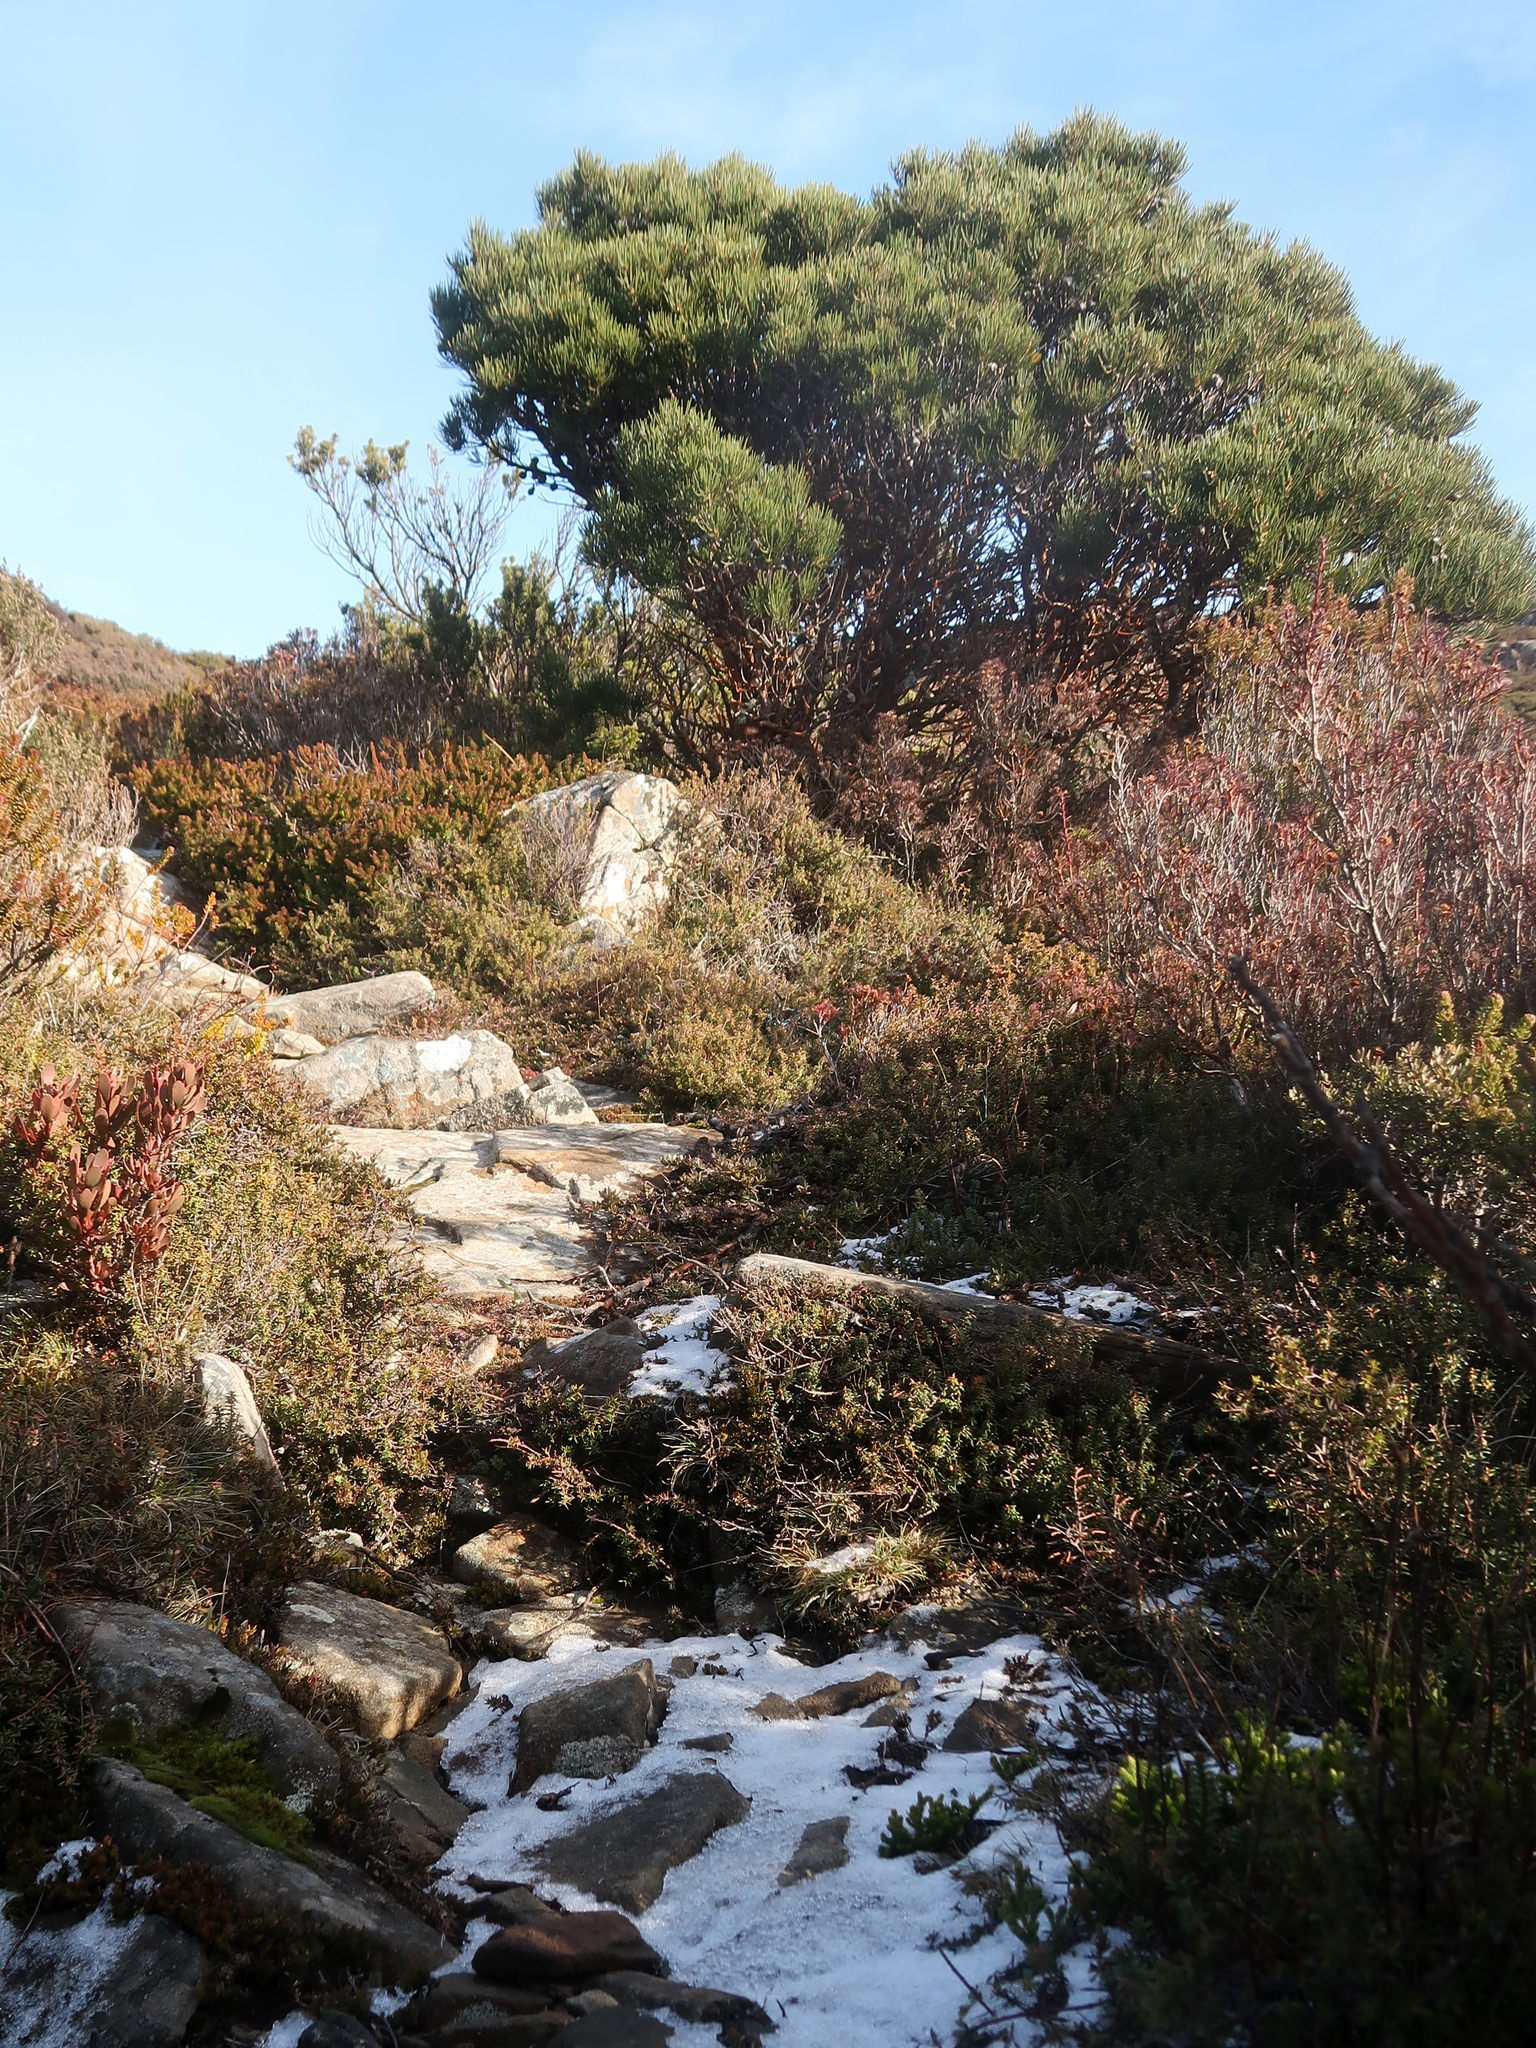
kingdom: Plantae
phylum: Tracheophyta
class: Magnoliopsida
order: Proteales
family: Proteaceae
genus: Hakea
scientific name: Hakea lissosperma
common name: Mountain needlewood
